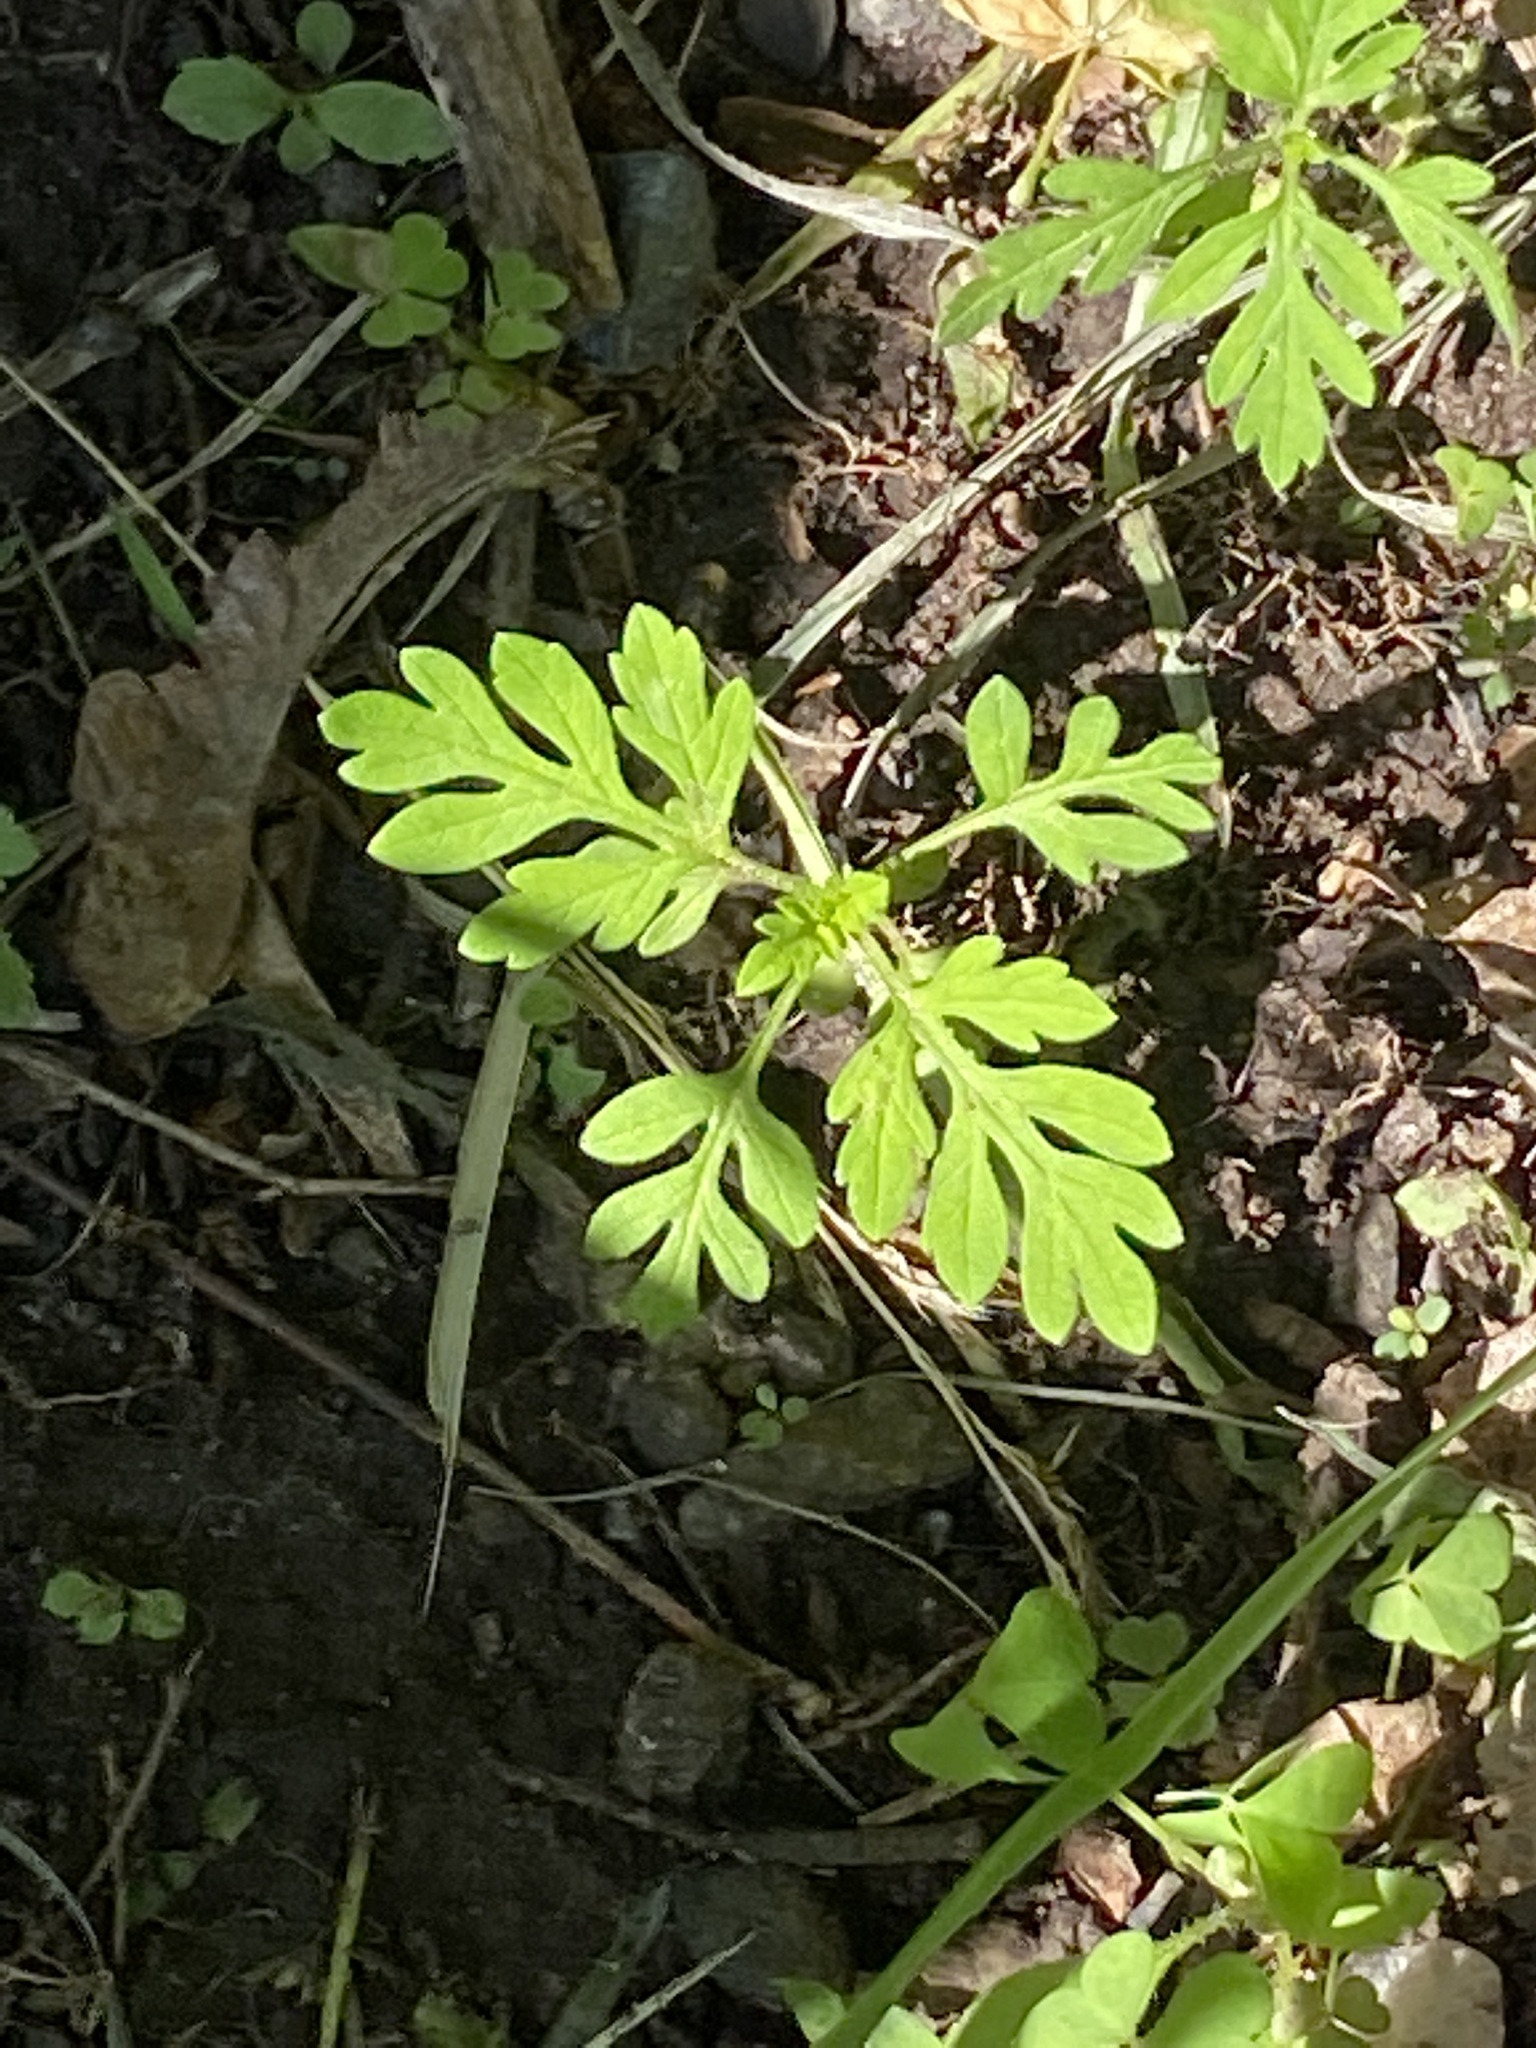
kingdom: Plantae
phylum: Tracheophyta
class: Magnoliopsida
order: Asterales
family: Asteraceae
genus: Ambrosia
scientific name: Ambrosia artemisiifolia
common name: Annual ragweed
